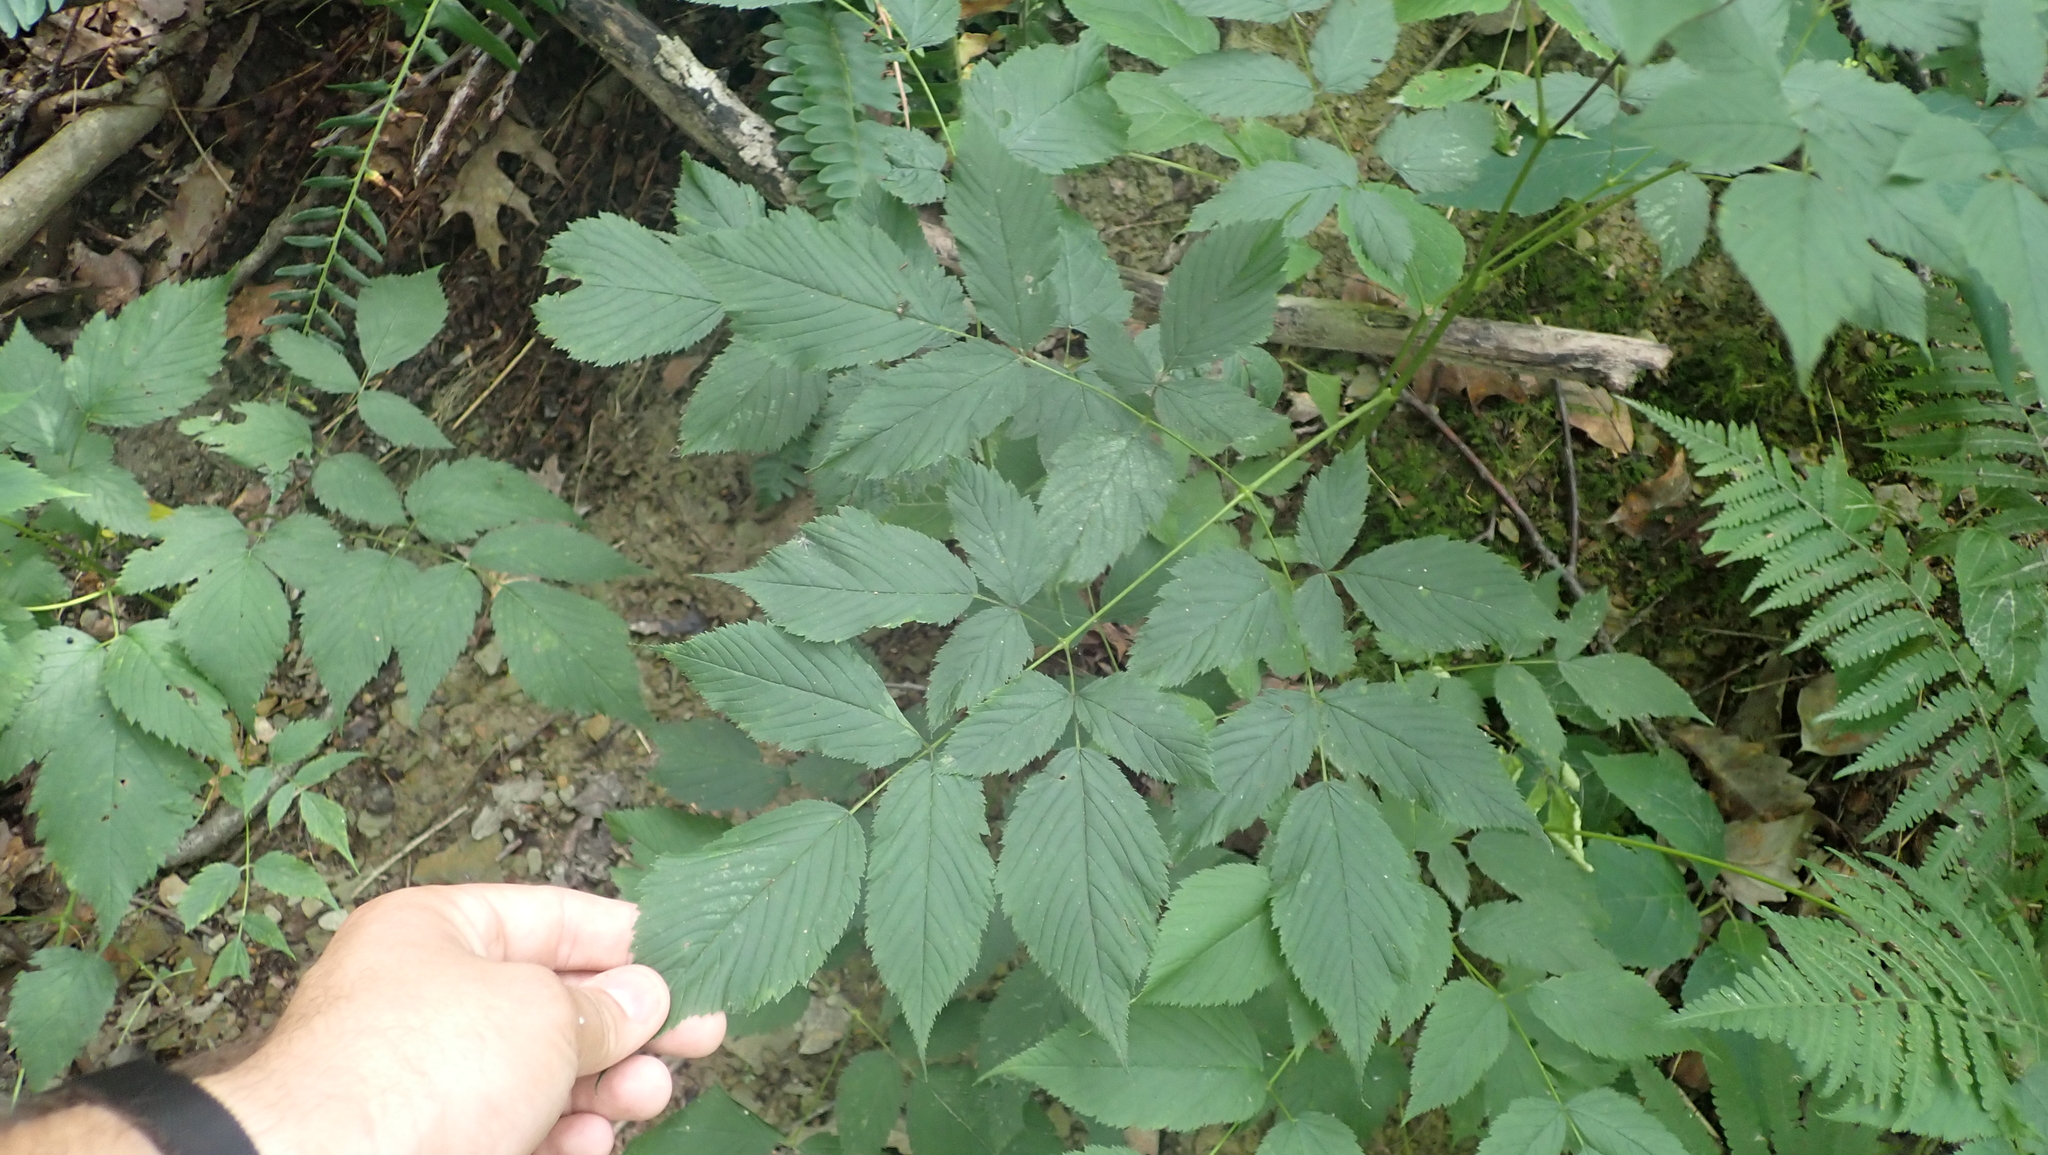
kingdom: Plantae
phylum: Tracheophyta
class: Magnoliopsida
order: Rosales
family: Rosaceae
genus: Aruncus
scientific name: Aruncus dioicus
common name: Buck's-beard
